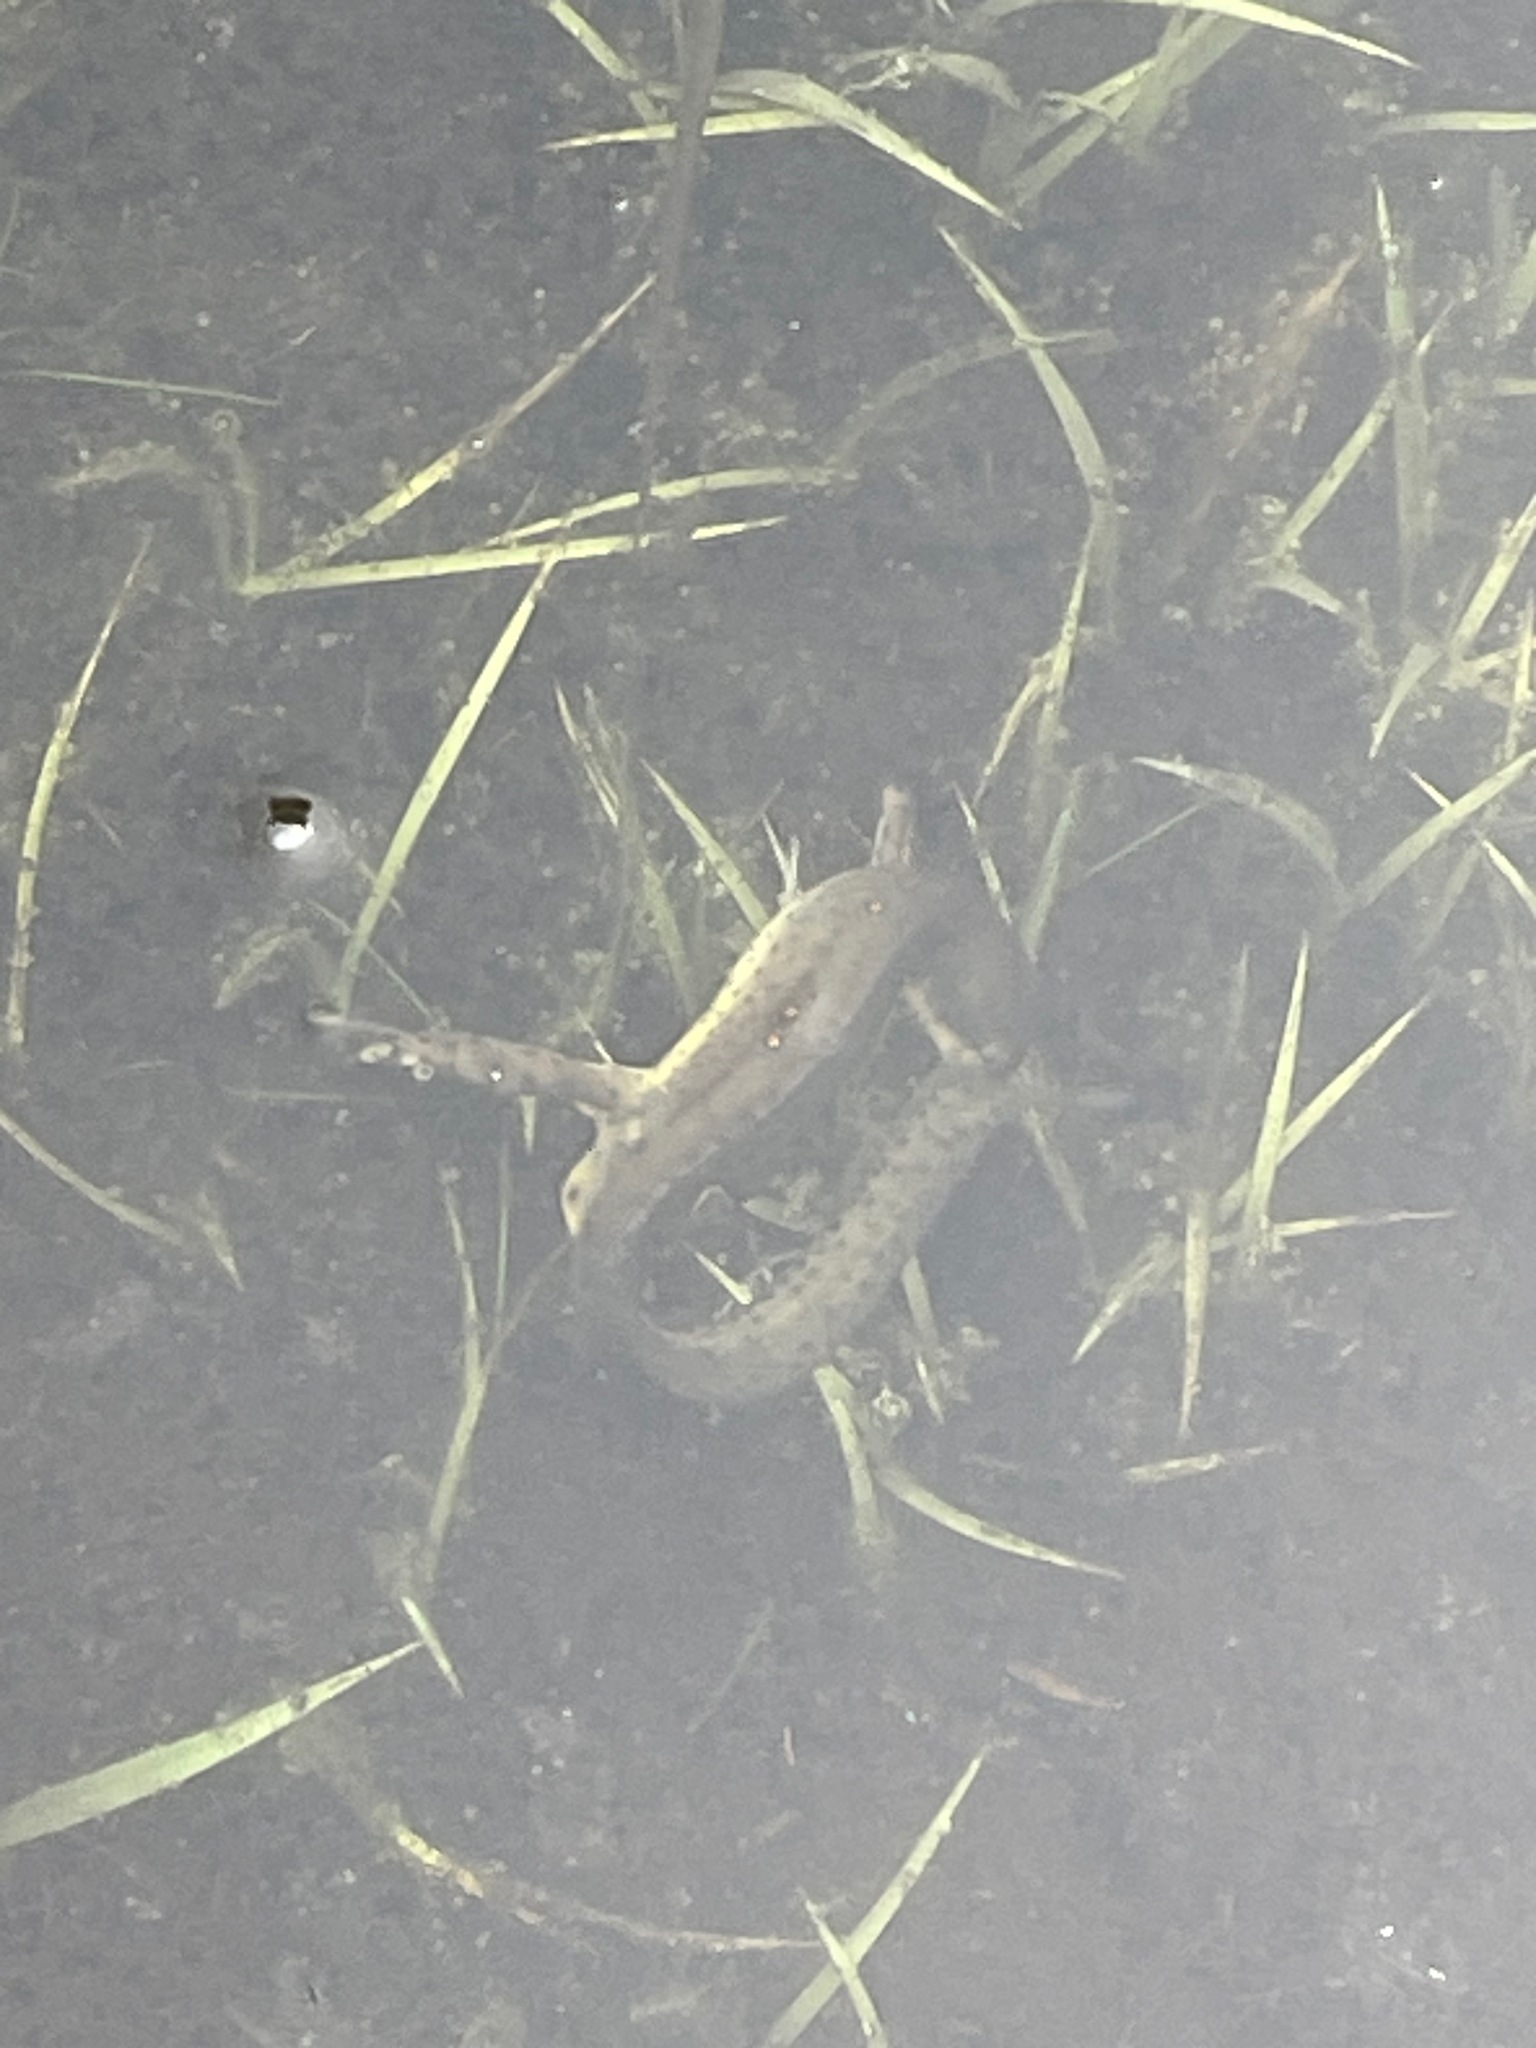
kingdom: Animalia
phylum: Chordata
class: Amphibia
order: Caudata
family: Salamandridae
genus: Notophthalmus
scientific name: Notophthalmus viridescens
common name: Eastern newt
